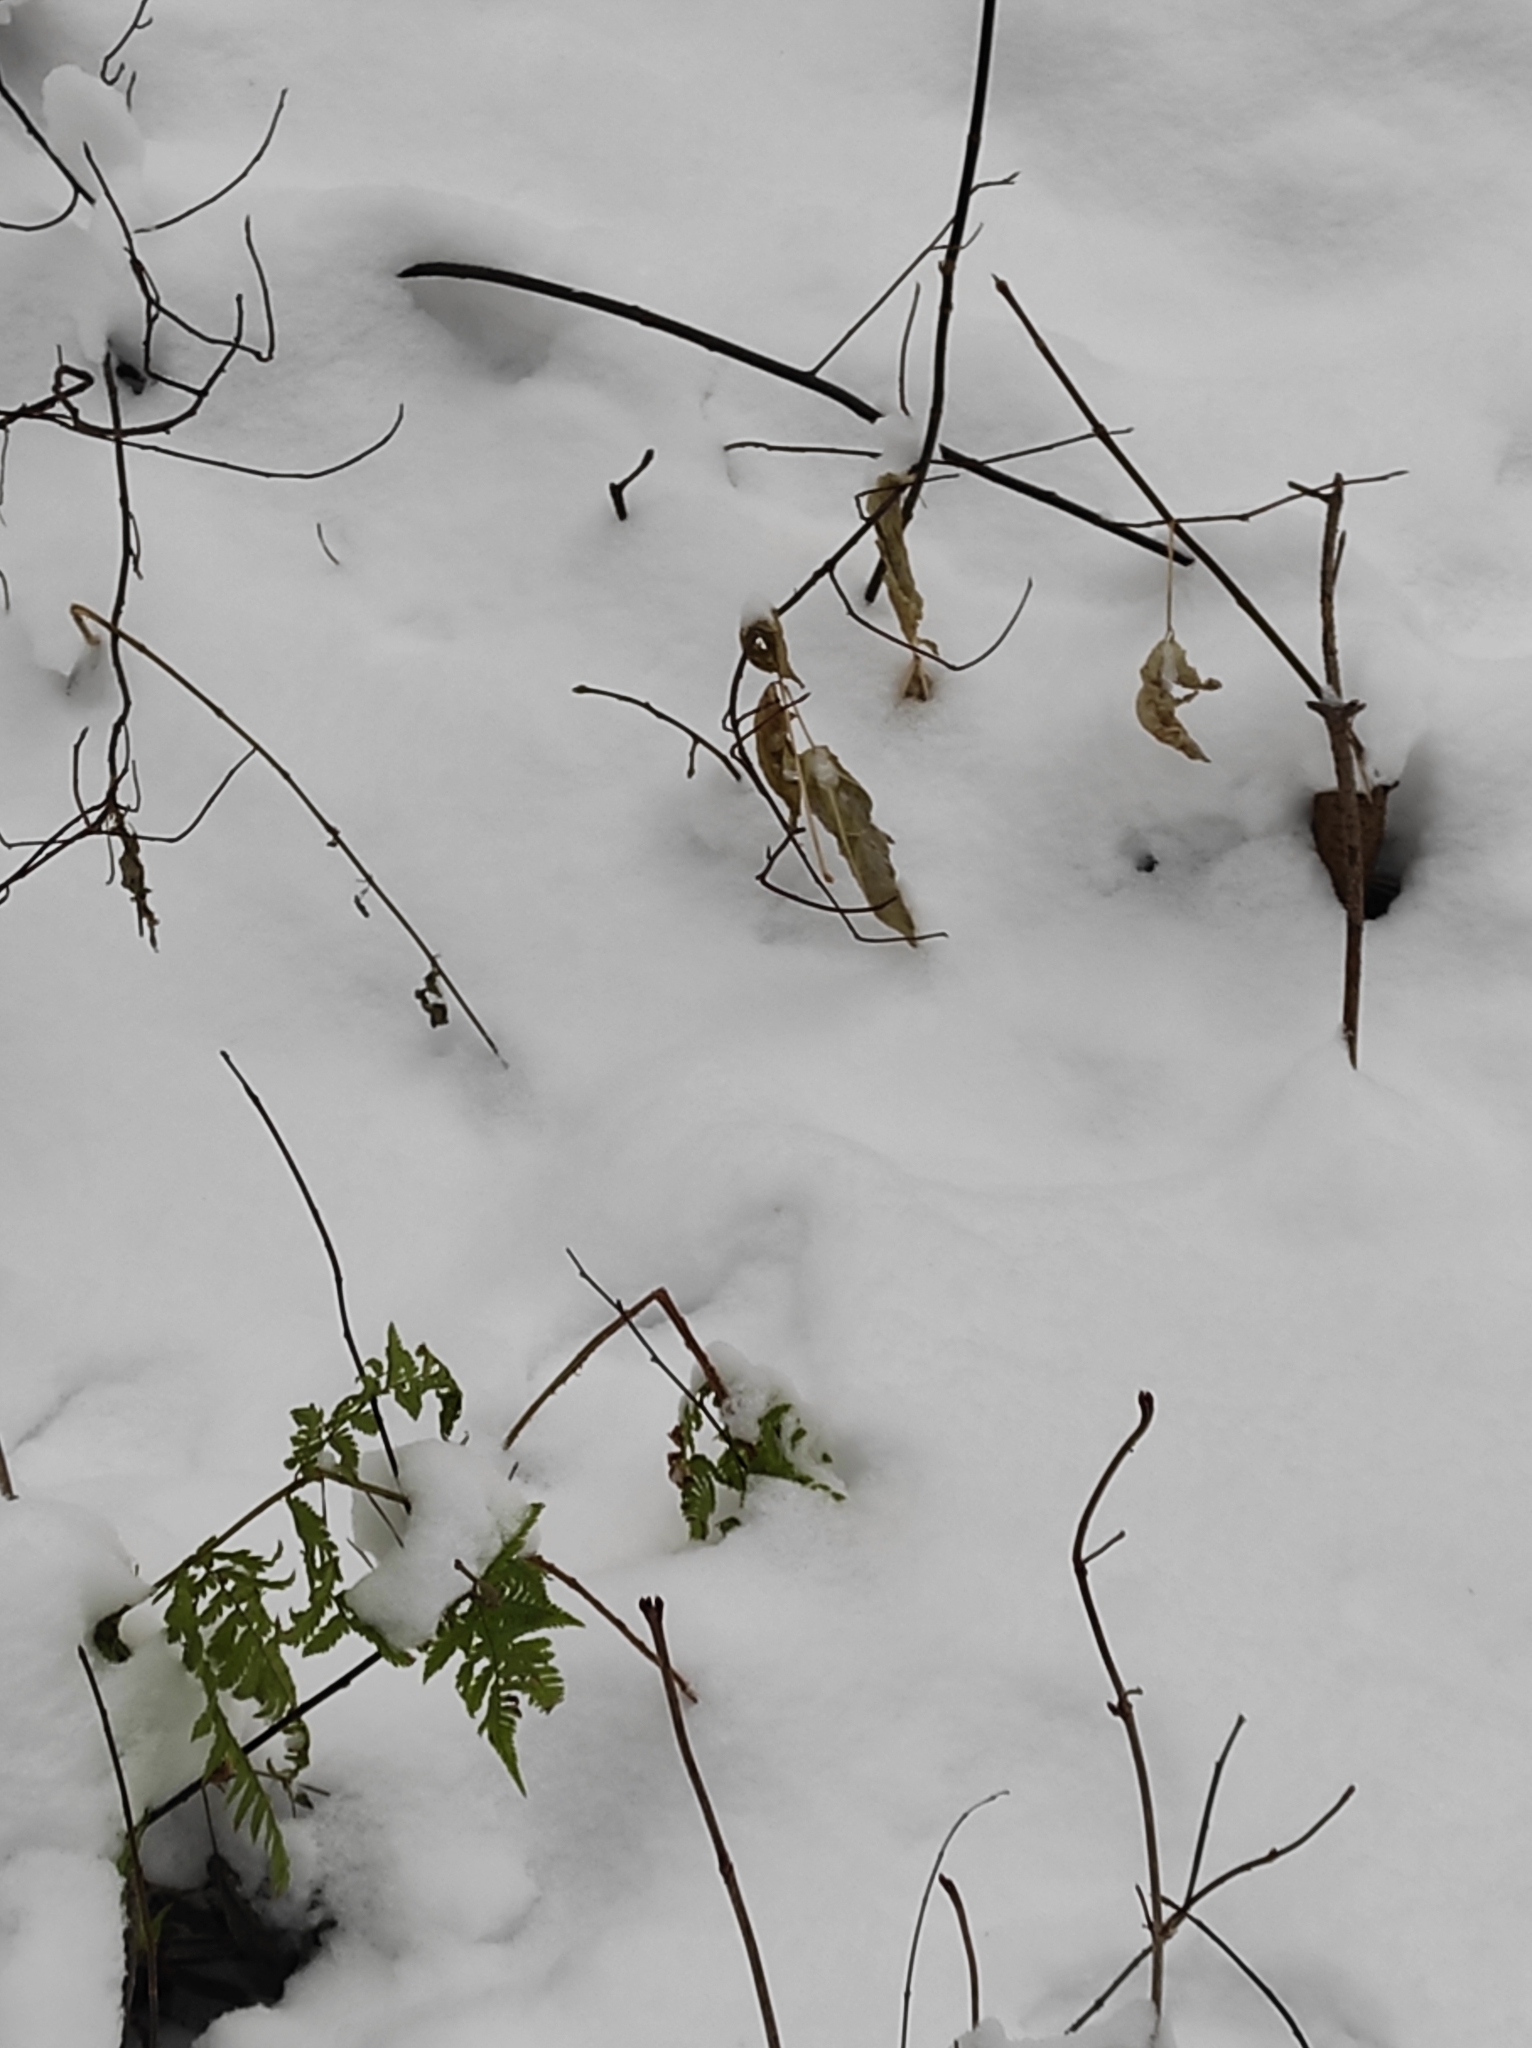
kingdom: Plantae
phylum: Tracheophyta
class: Polypodiopsida
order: Polypodiales
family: Dryopteridaceae
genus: Dryopteris
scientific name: Dryopteris carthusiana
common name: Narrow buckler-fern
